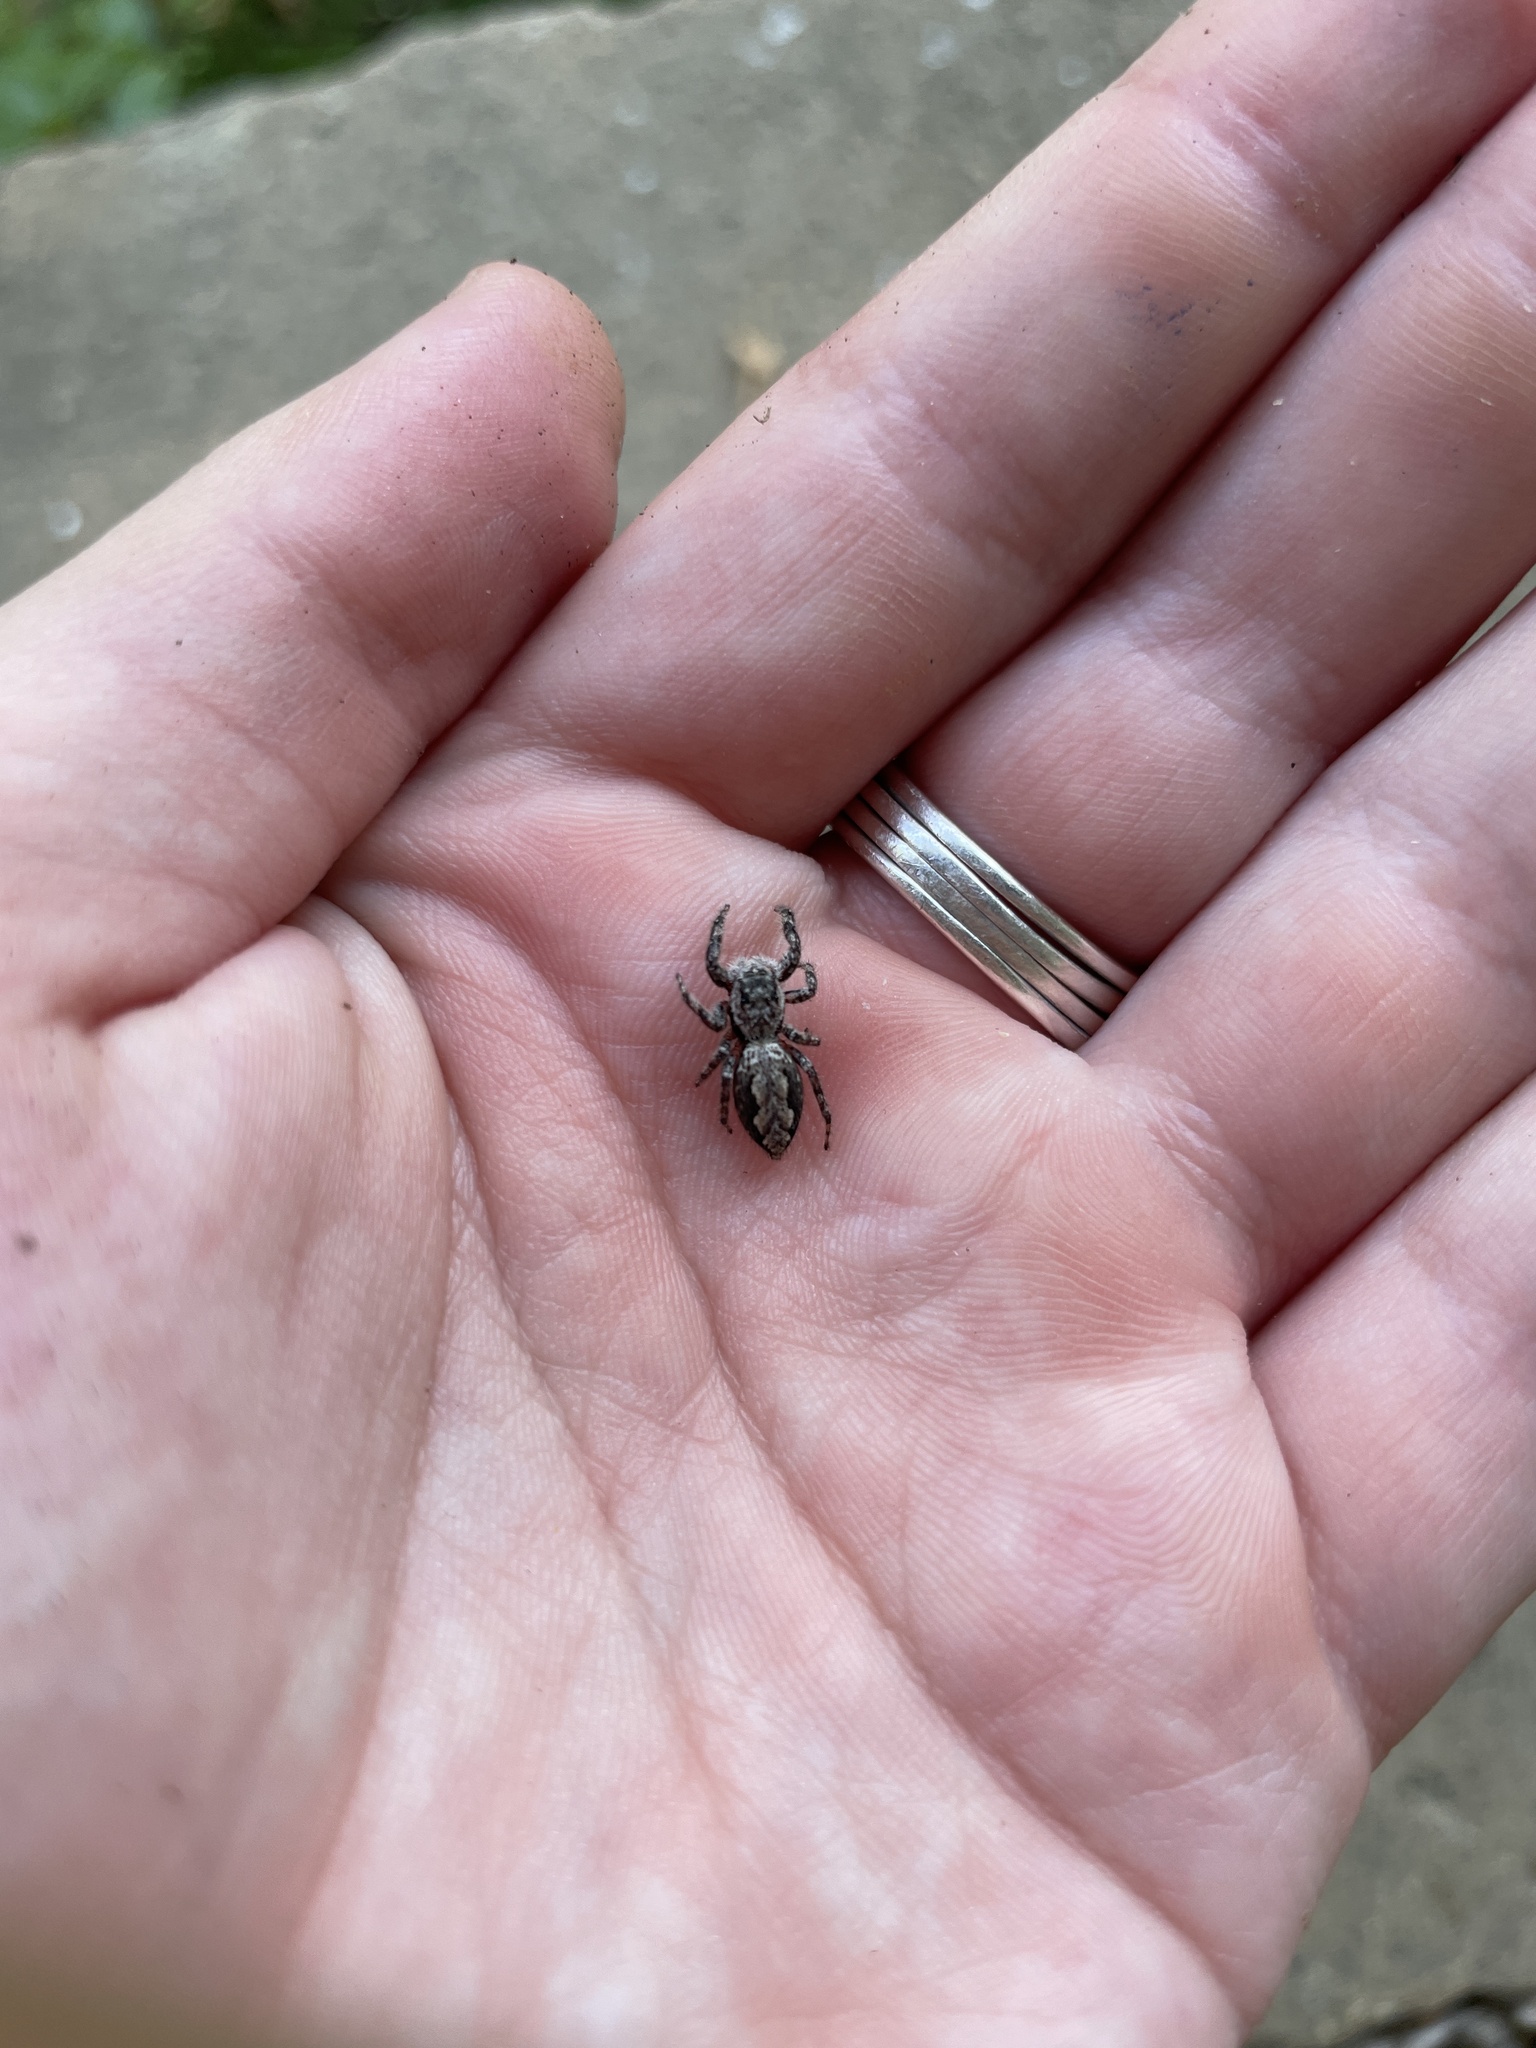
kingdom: Animalia
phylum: Arthropoda
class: Arachnida
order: Araneae
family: Salticidae
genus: Platycryptus
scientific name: Platycryptus undatus
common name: Tan jumping spider
